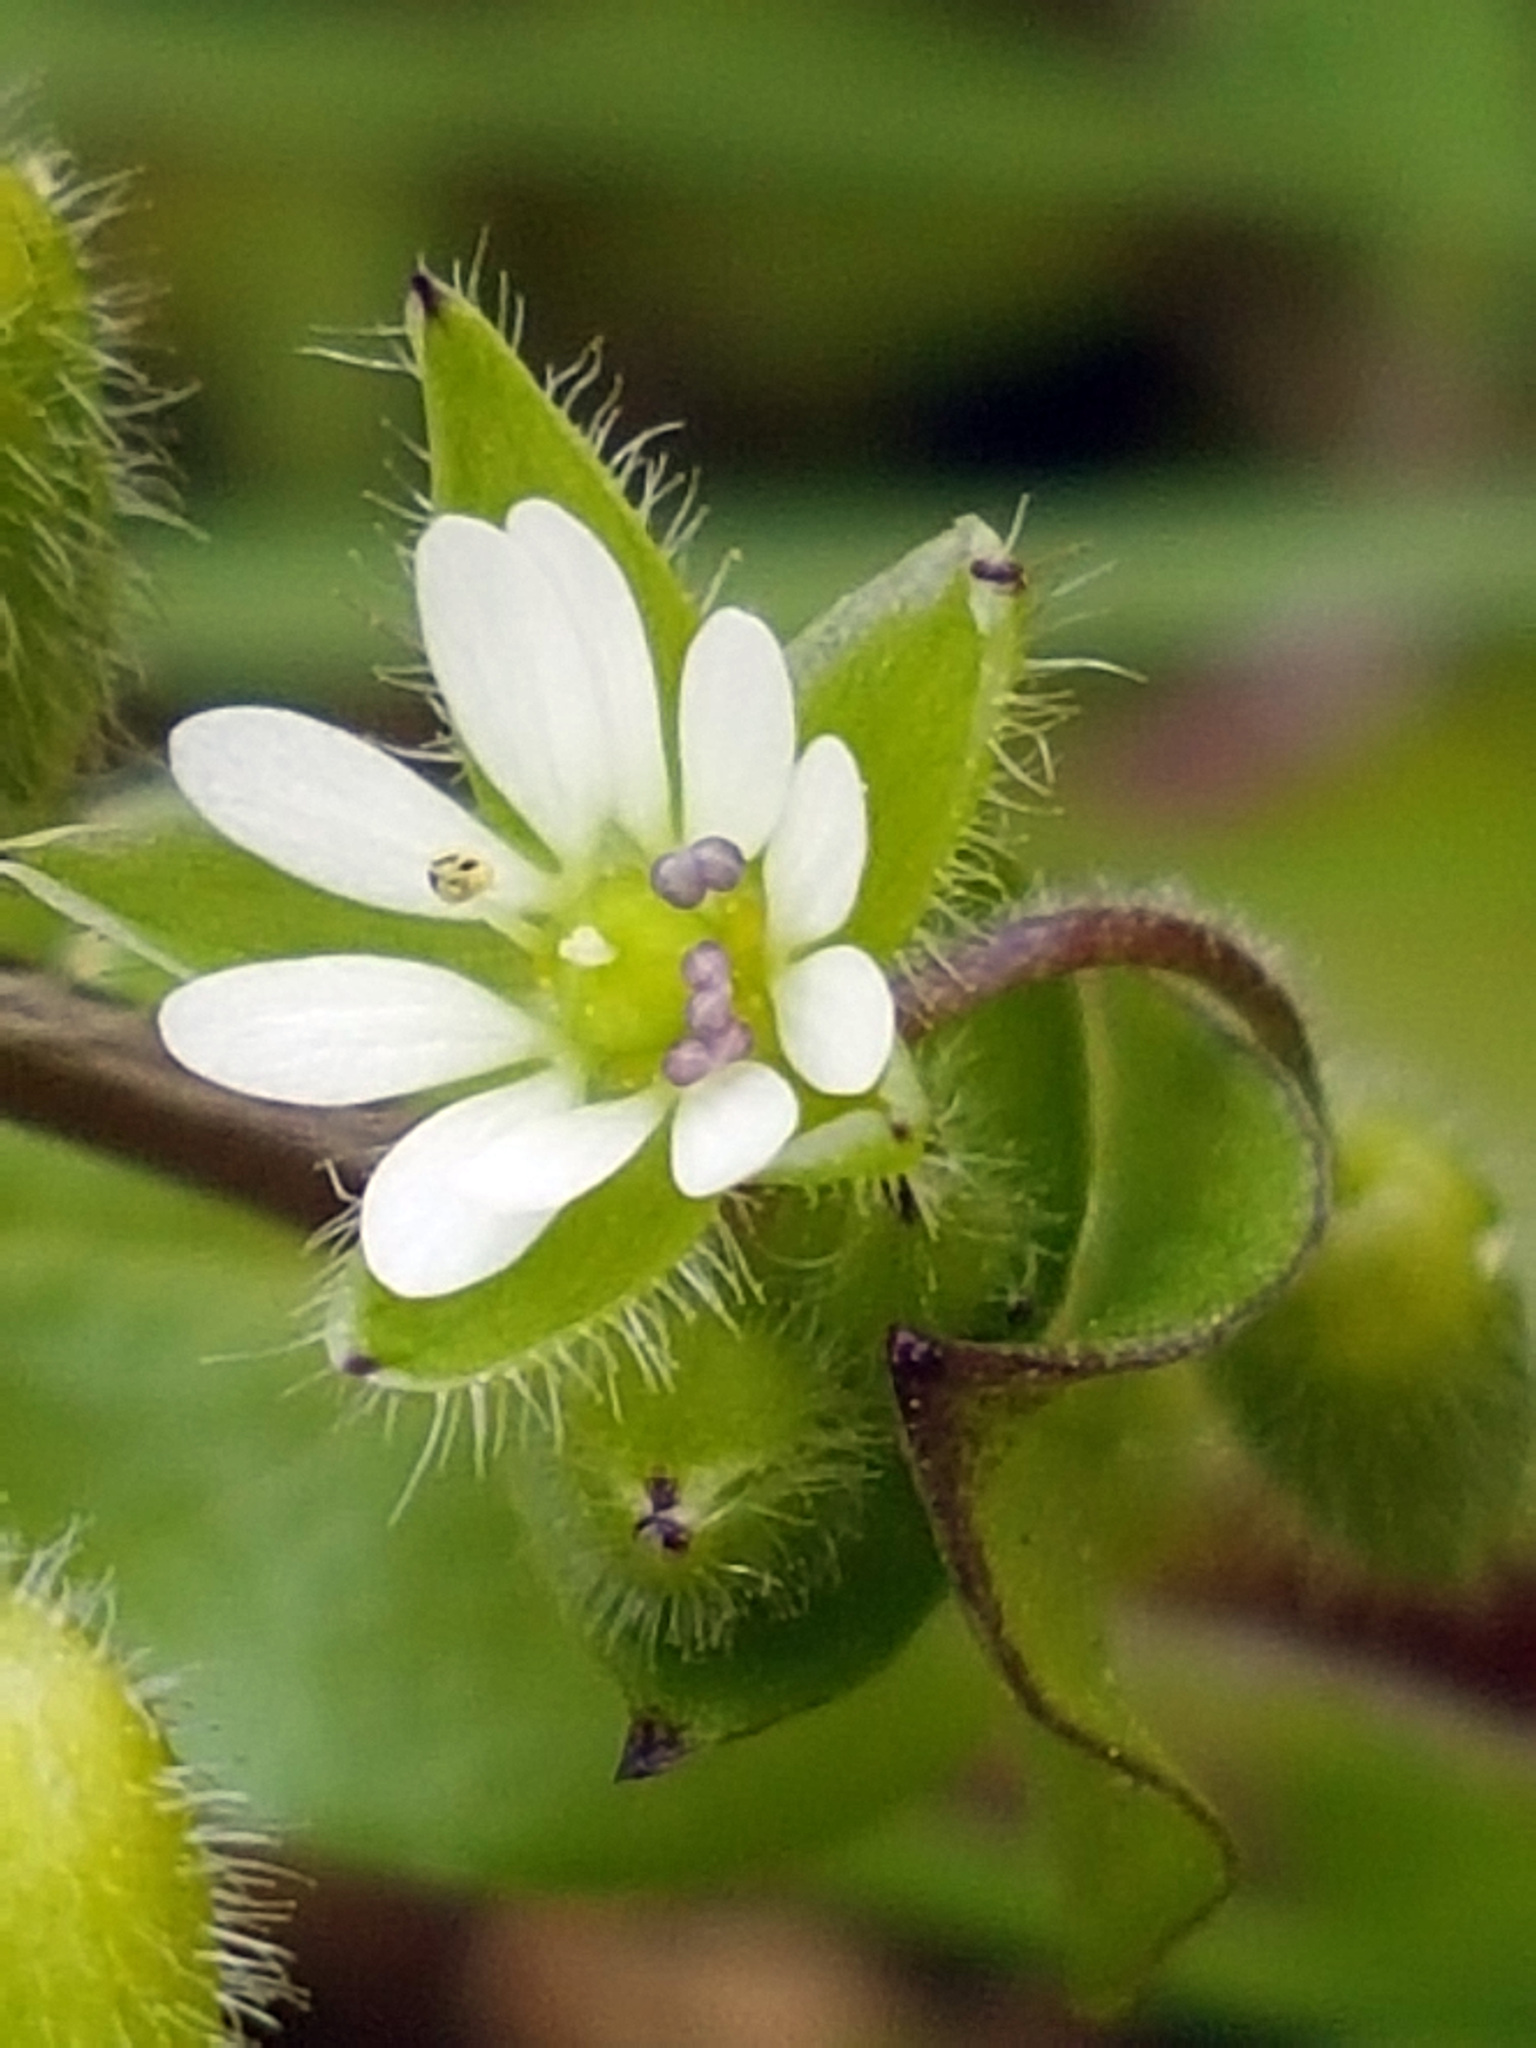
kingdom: Plantae
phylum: Tracheophyta
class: Magnoliopsida
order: Caryophyllales
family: Caryophyllaceae
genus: Stellaria
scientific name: Stellaria media
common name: Common chickweed
